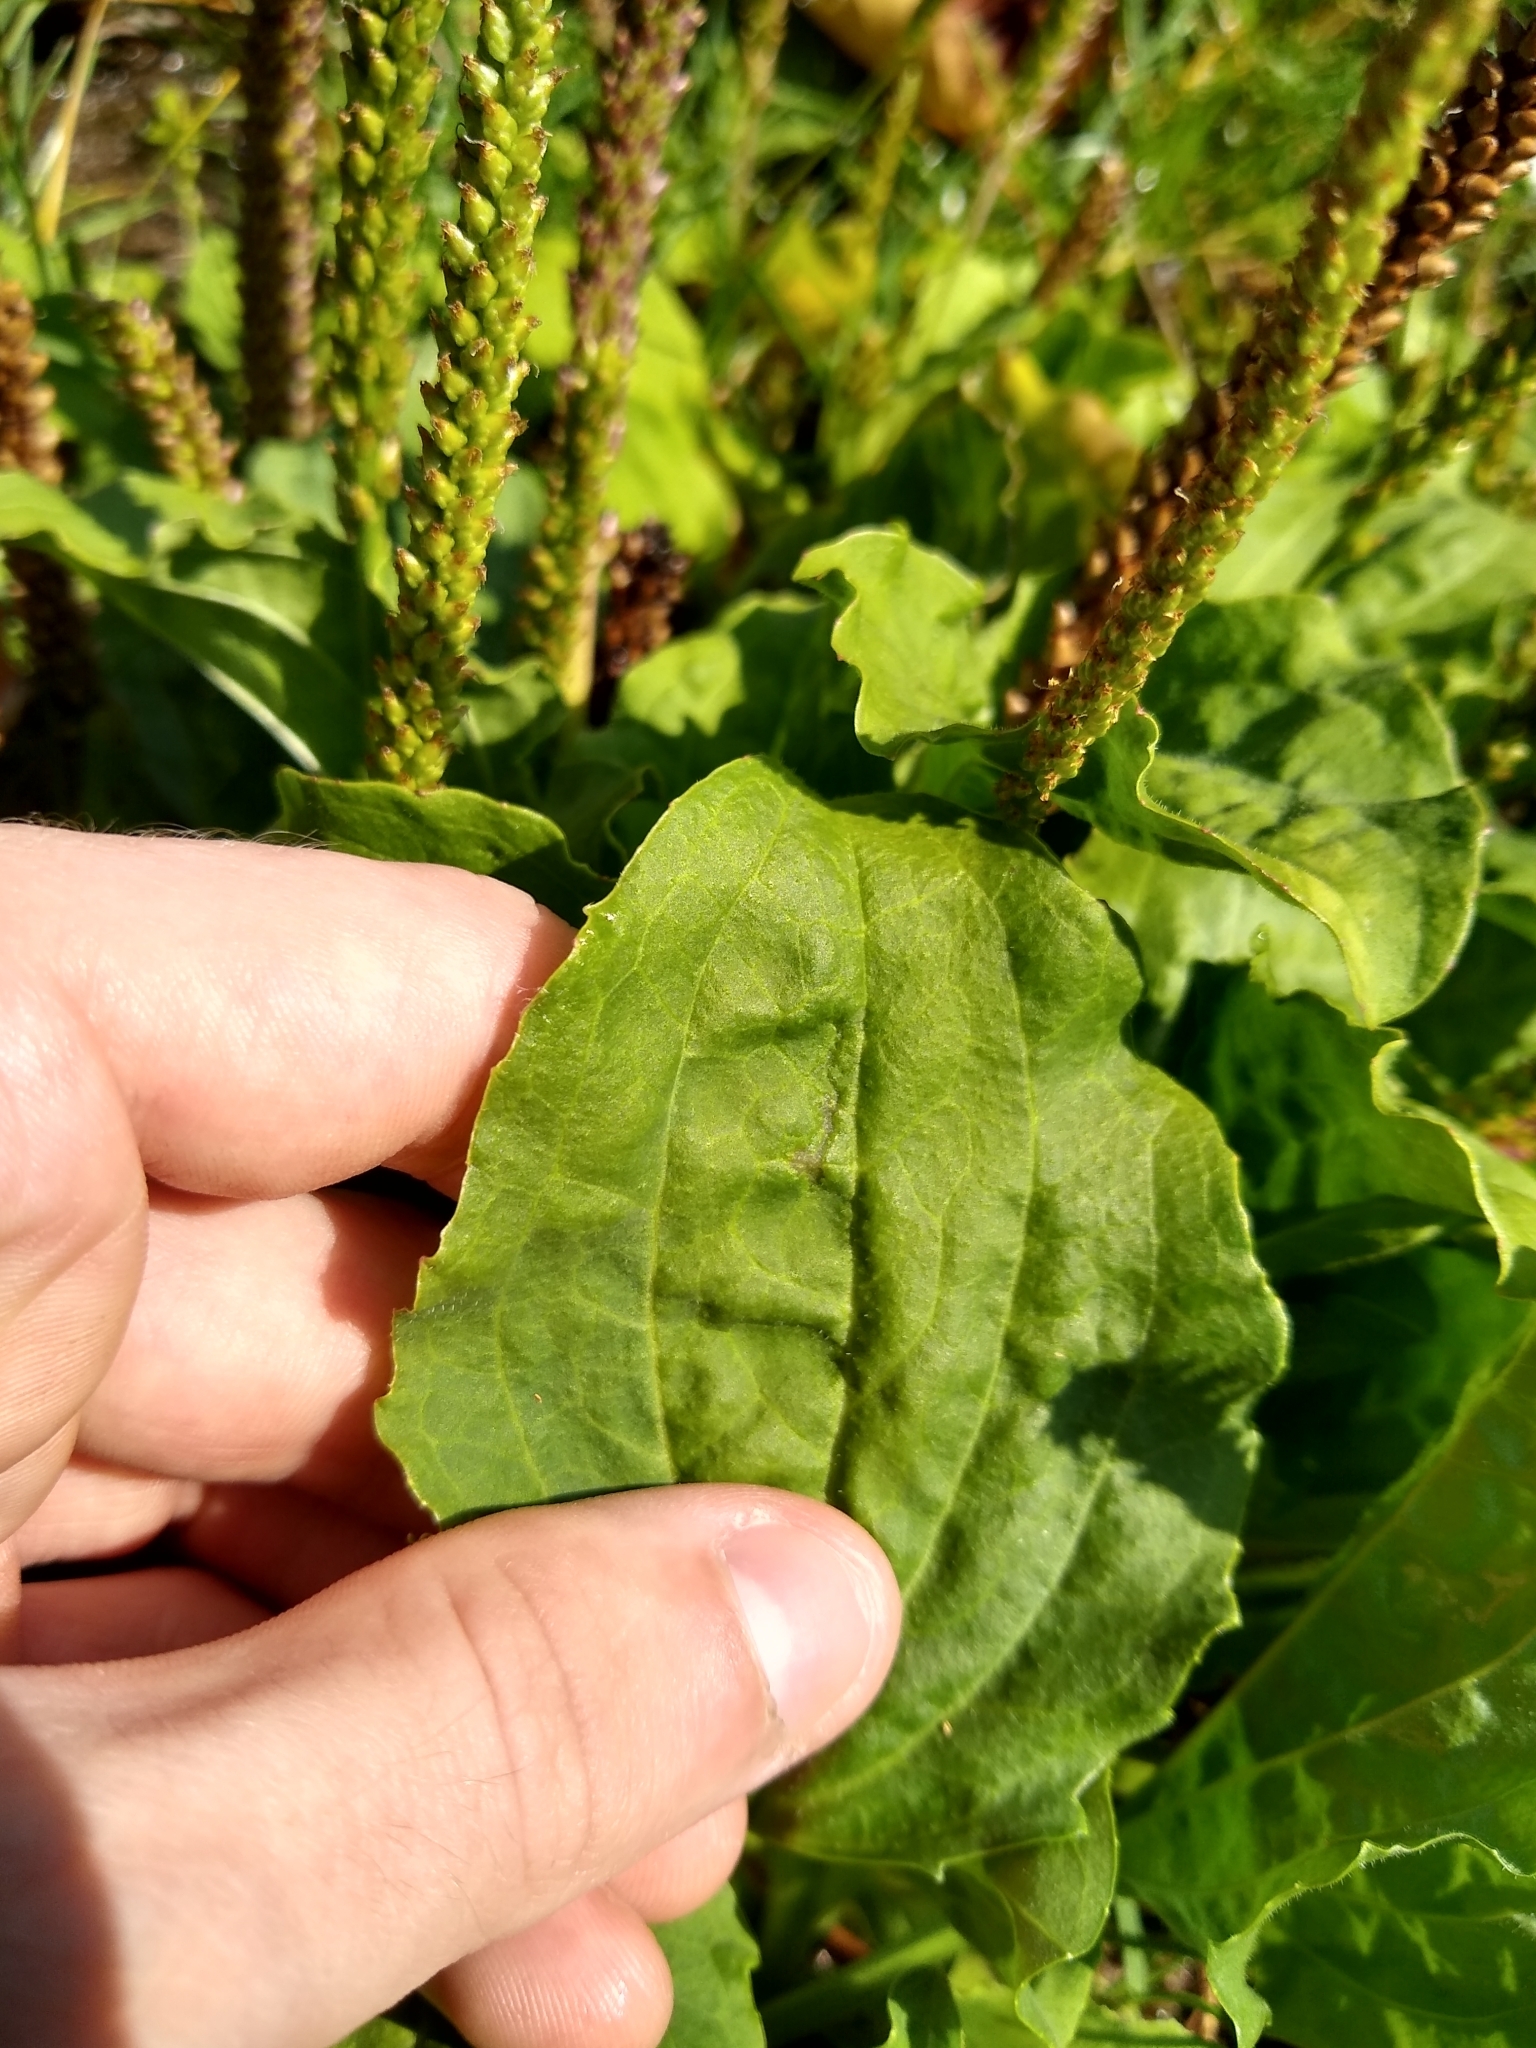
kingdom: Plantae
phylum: Tracheophyta
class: Magnoliopsida
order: Lamiales
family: Plantaginaceae
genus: Plantago
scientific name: Plantago major
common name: Common plantain
